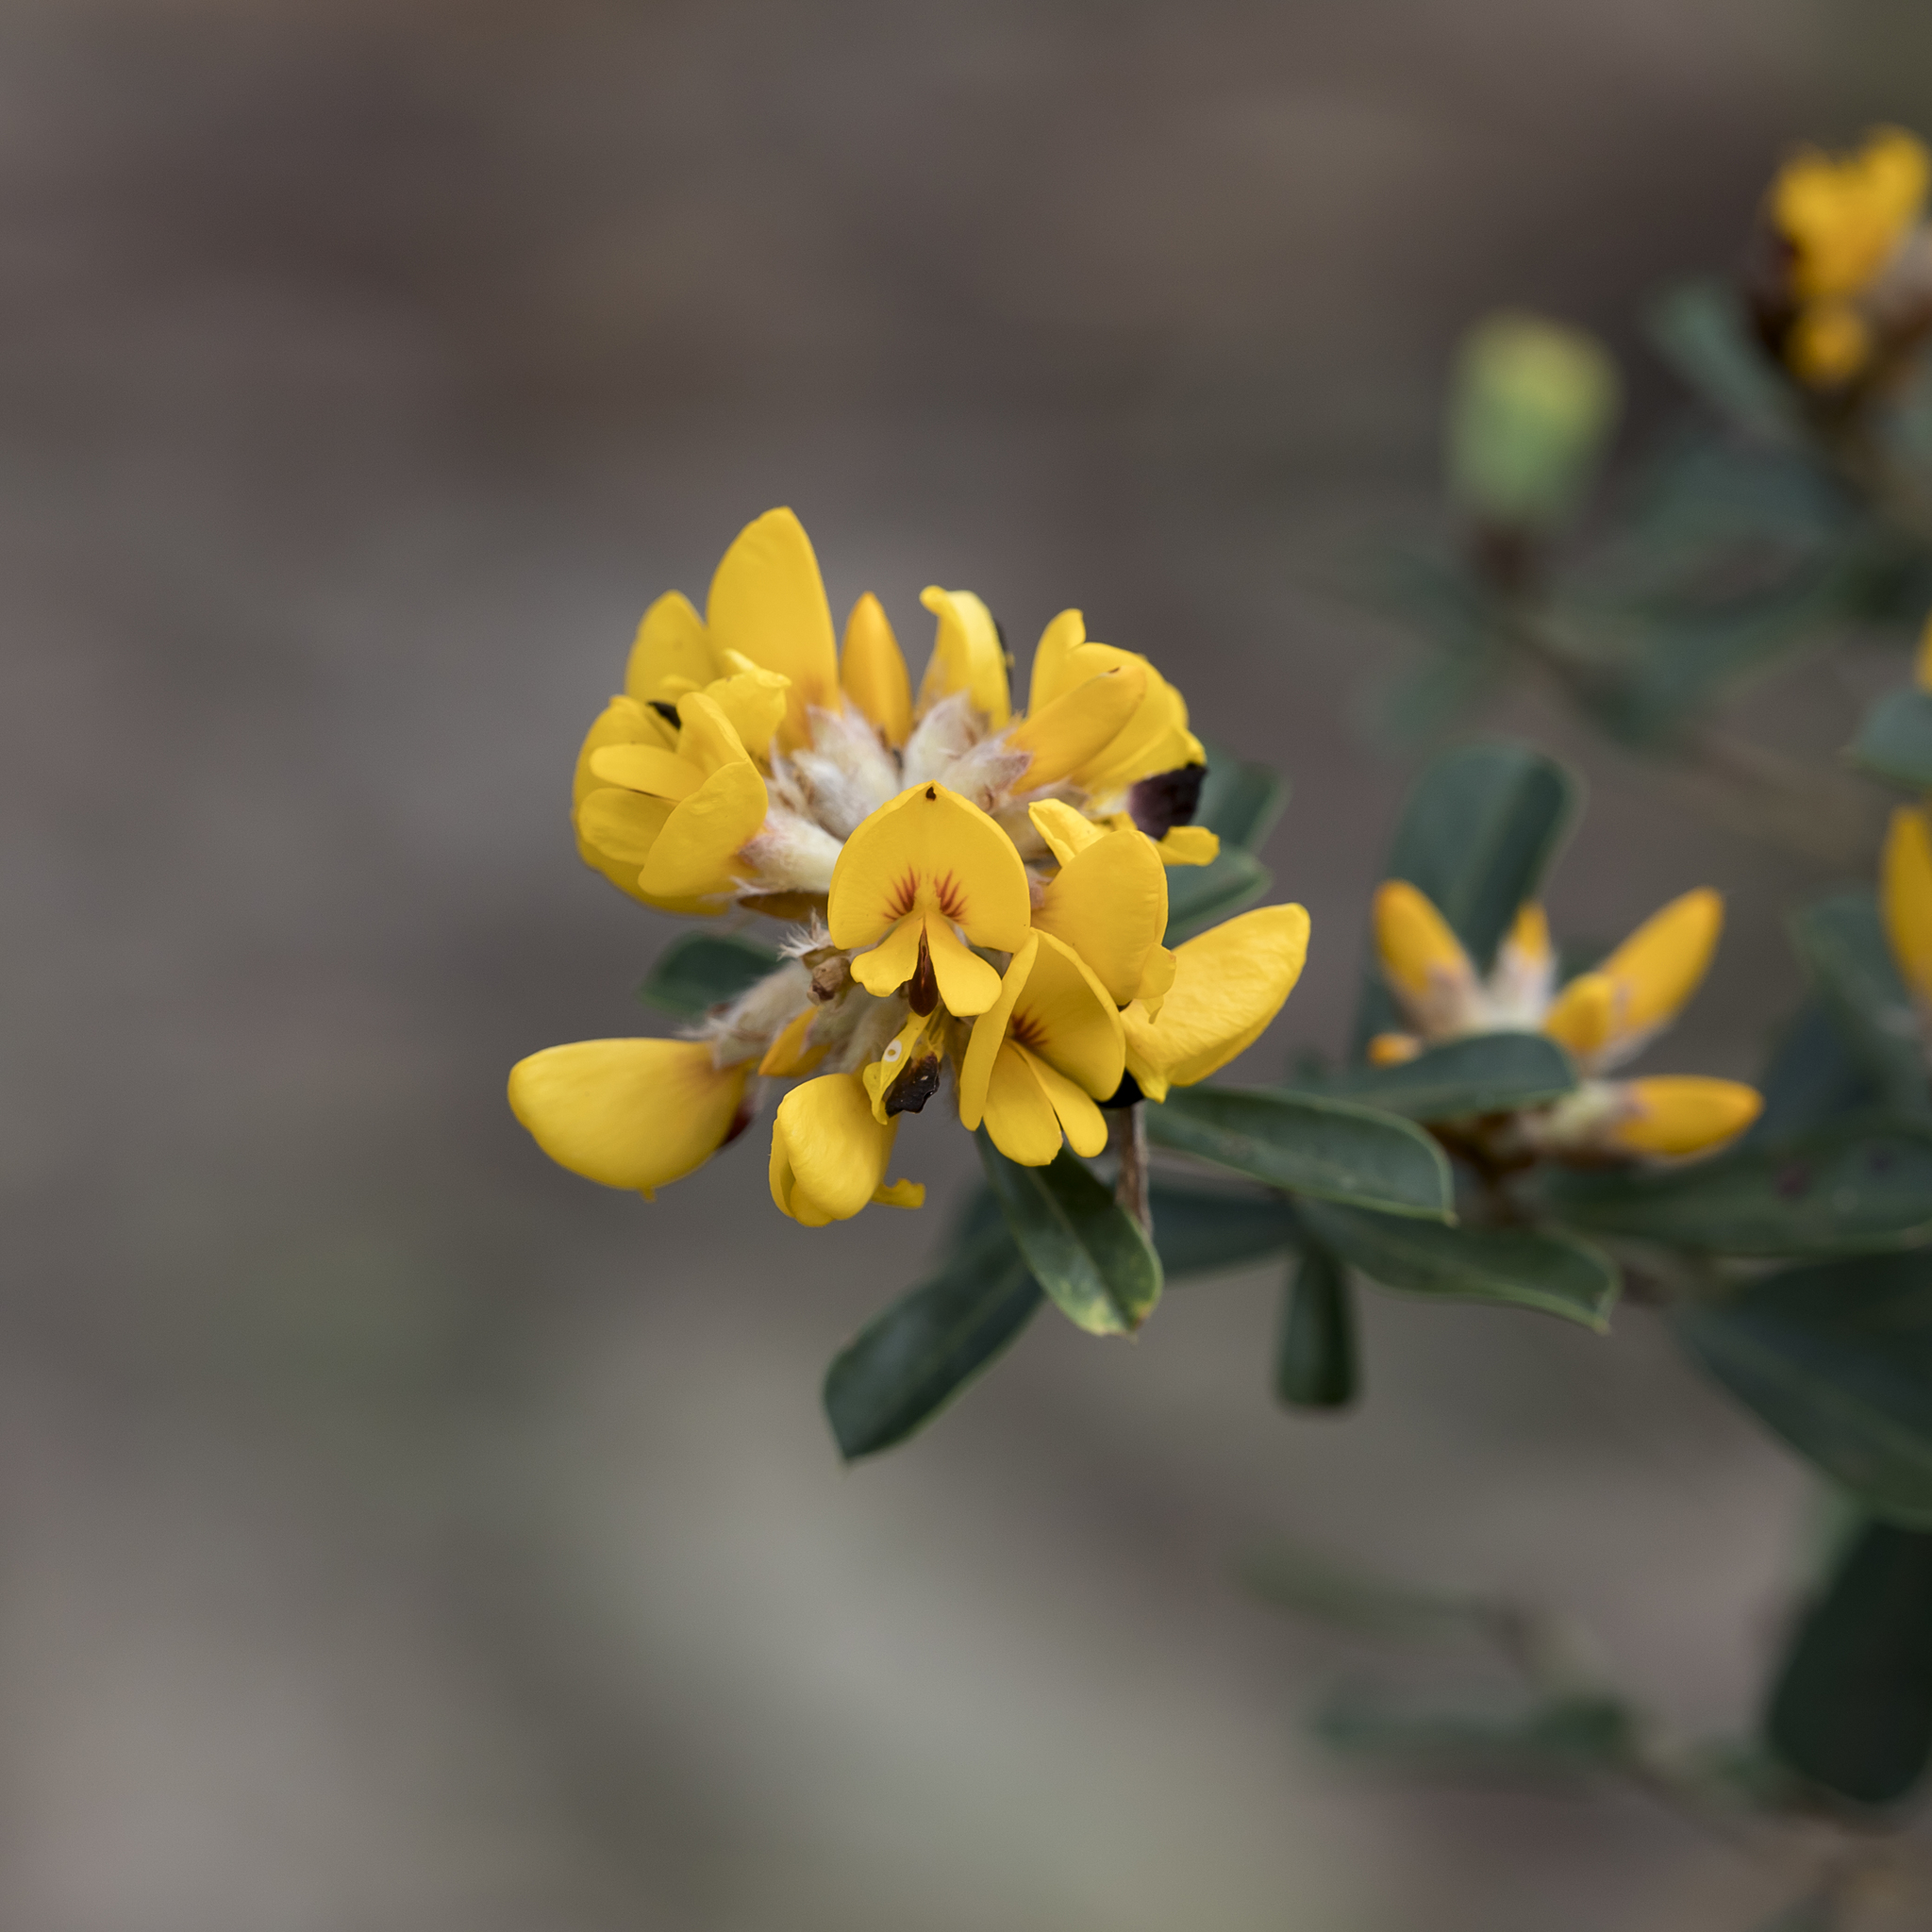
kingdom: Plantae
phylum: Tracheophyta
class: Magnoliopsida
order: Fabales
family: Fabaceae
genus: Pultenaea
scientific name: Pultenaea daphnoides
